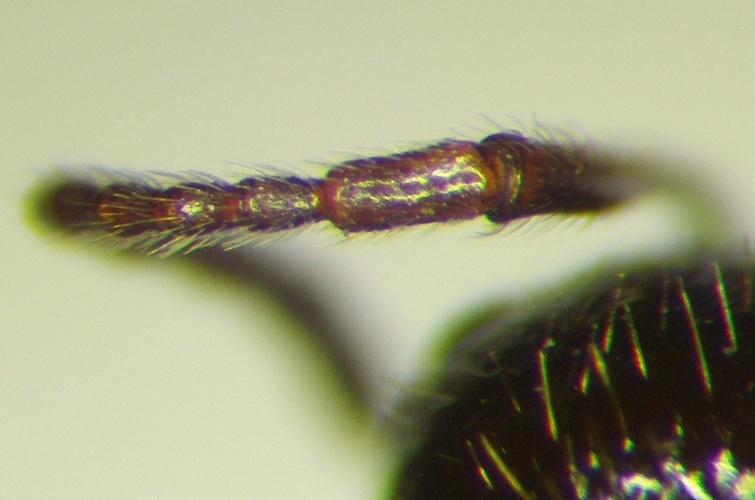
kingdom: Animalia
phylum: Arthropoda
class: Insecta
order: Hymenoptera
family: Formicidae
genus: Messor
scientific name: Messor structor
